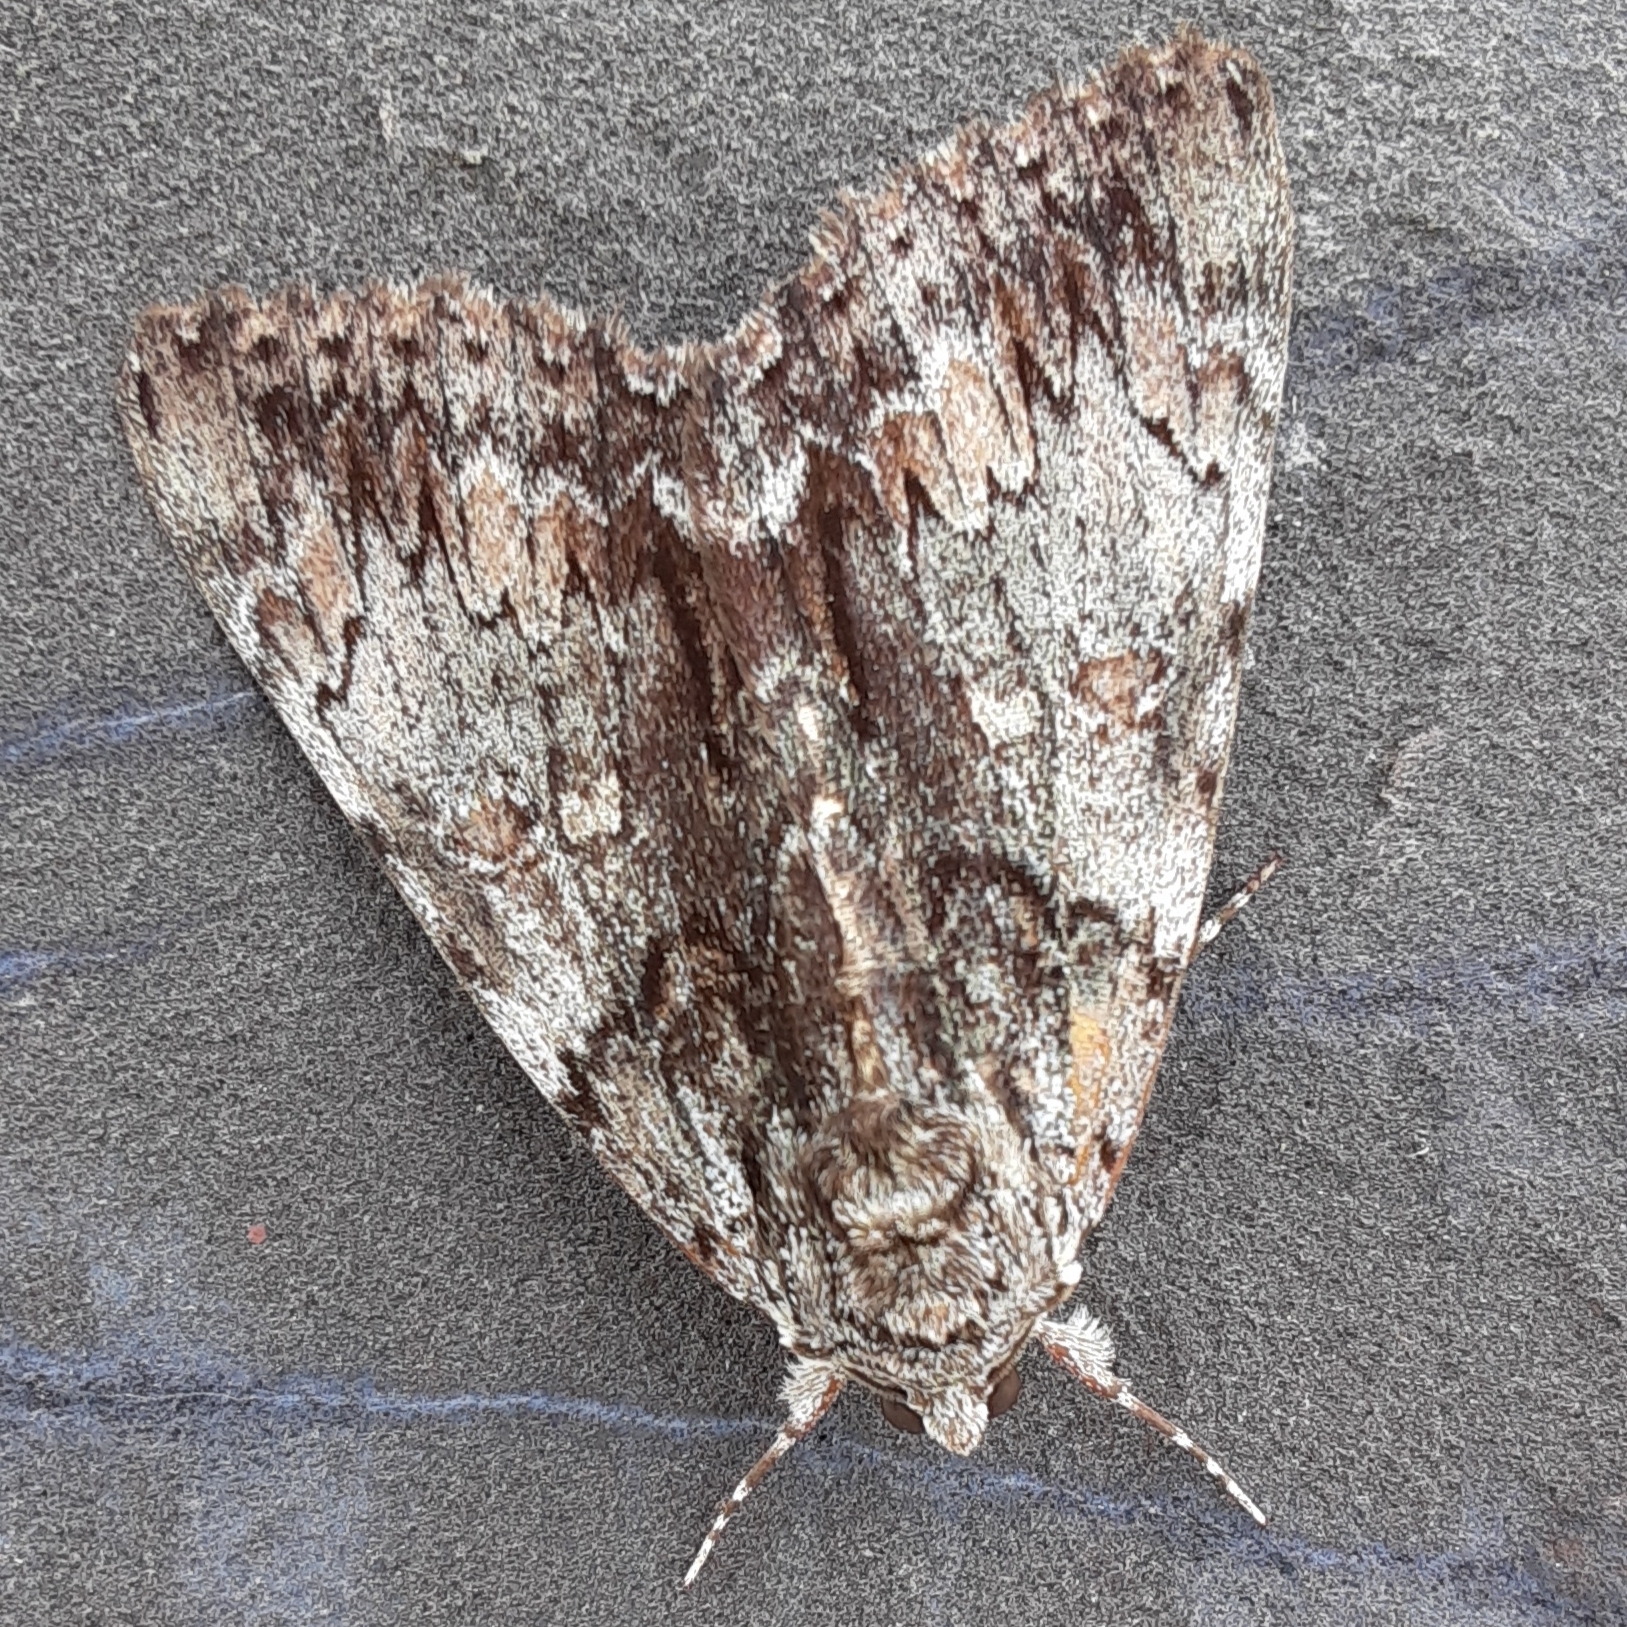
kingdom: Animalia
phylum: Arthropoda
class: Insecta
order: Lepidoptera
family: Erebidae
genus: Catocala
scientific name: Catocala palaeogama
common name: Oldwife underwing
